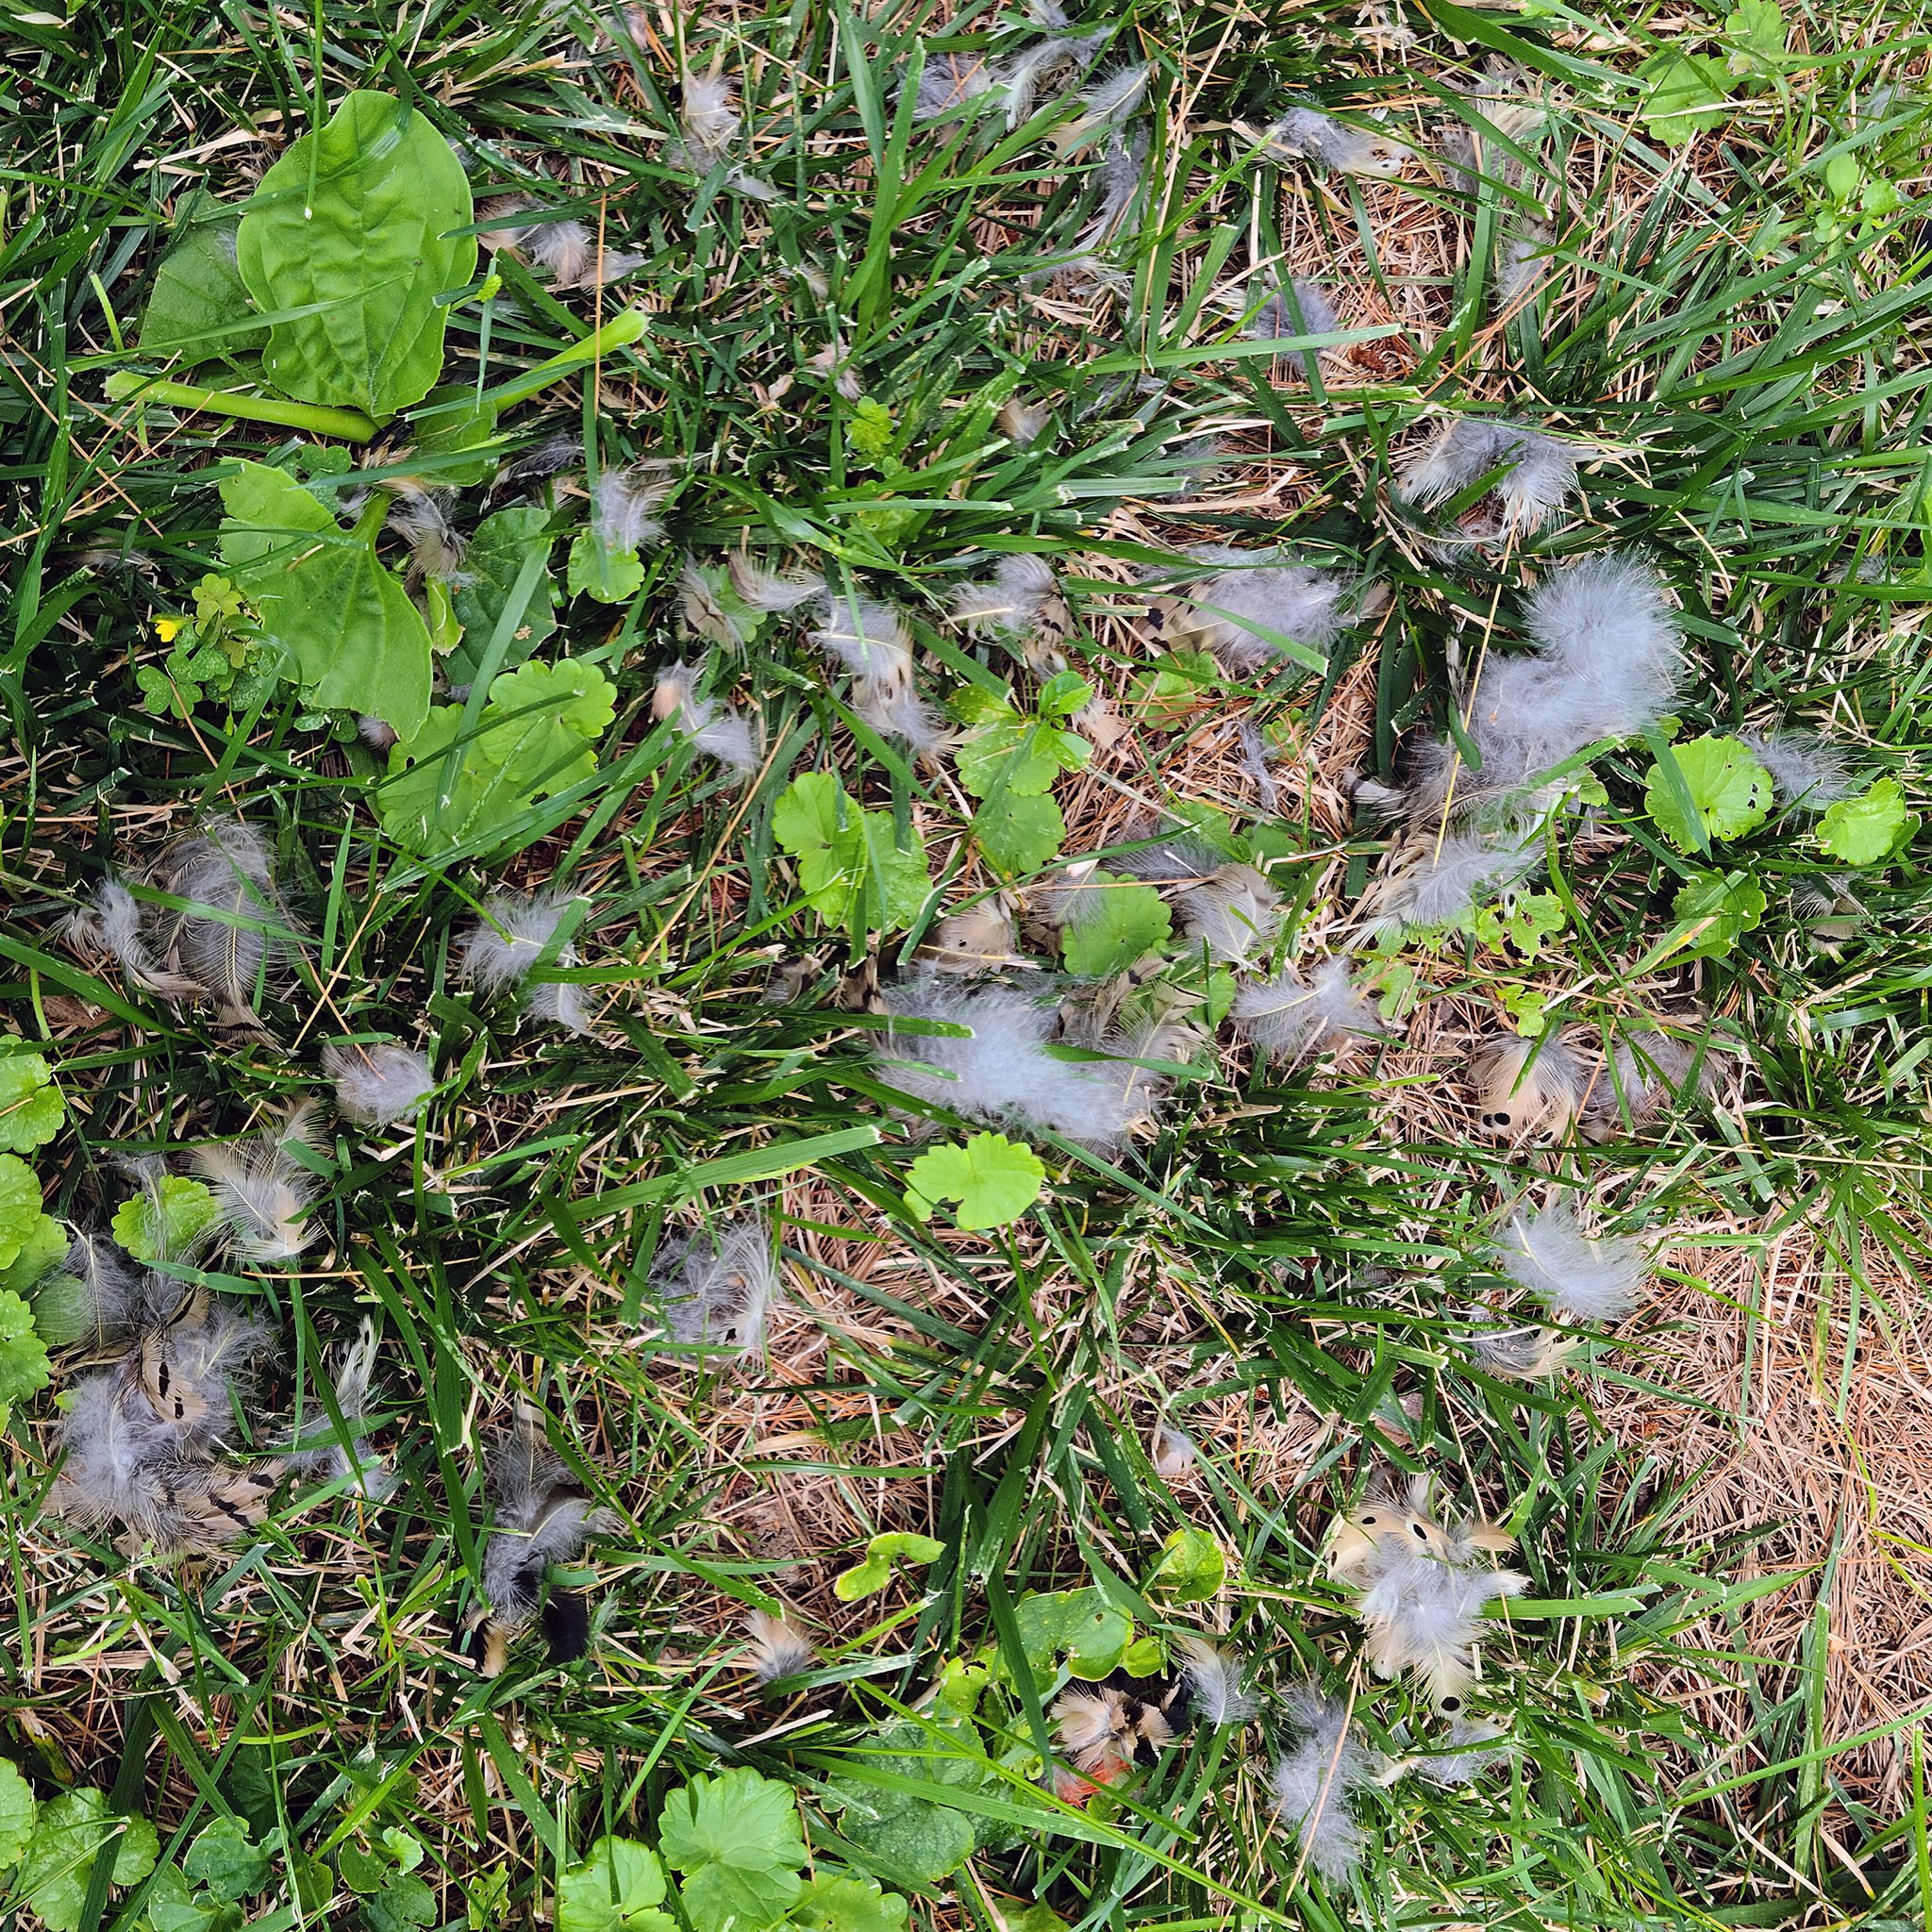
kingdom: Animalia
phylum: Chordata
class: Aves
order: Piciformes
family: Picidae
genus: Colaptes
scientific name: Colaptes auratus
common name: Northern flicker
